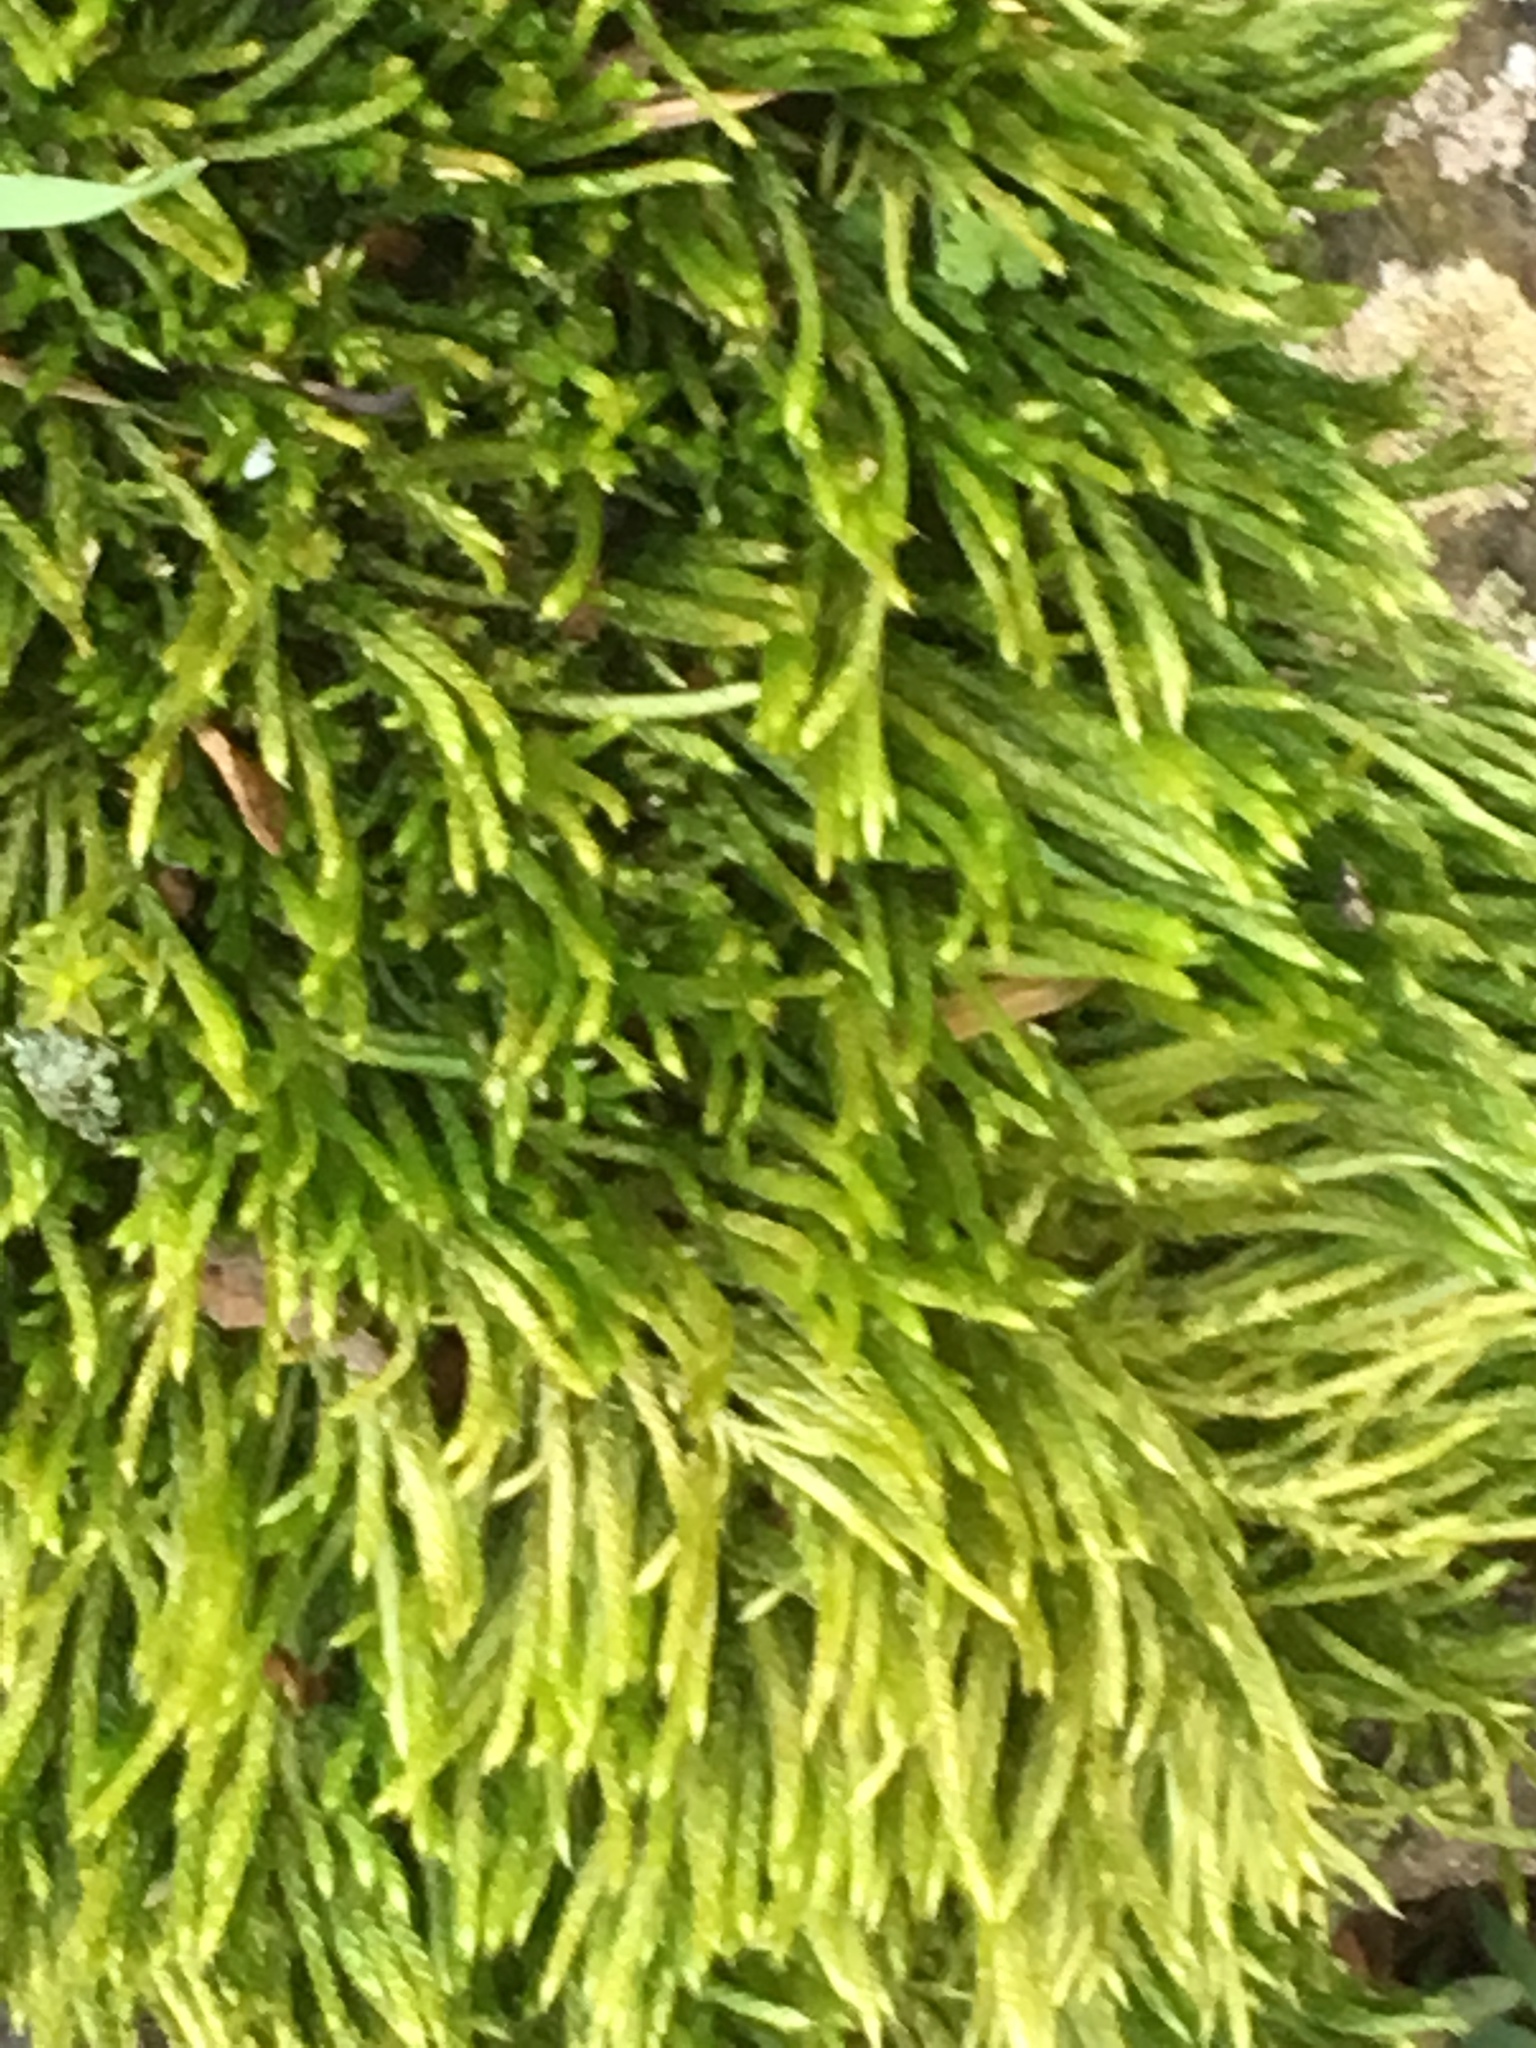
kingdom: Plantae
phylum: Bryophyta
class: Bryopsida
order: Hypnales
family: Brachytheciaceae
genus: Brachythecium
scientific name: Brachythecium albicans
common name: Whitish ragged moss
